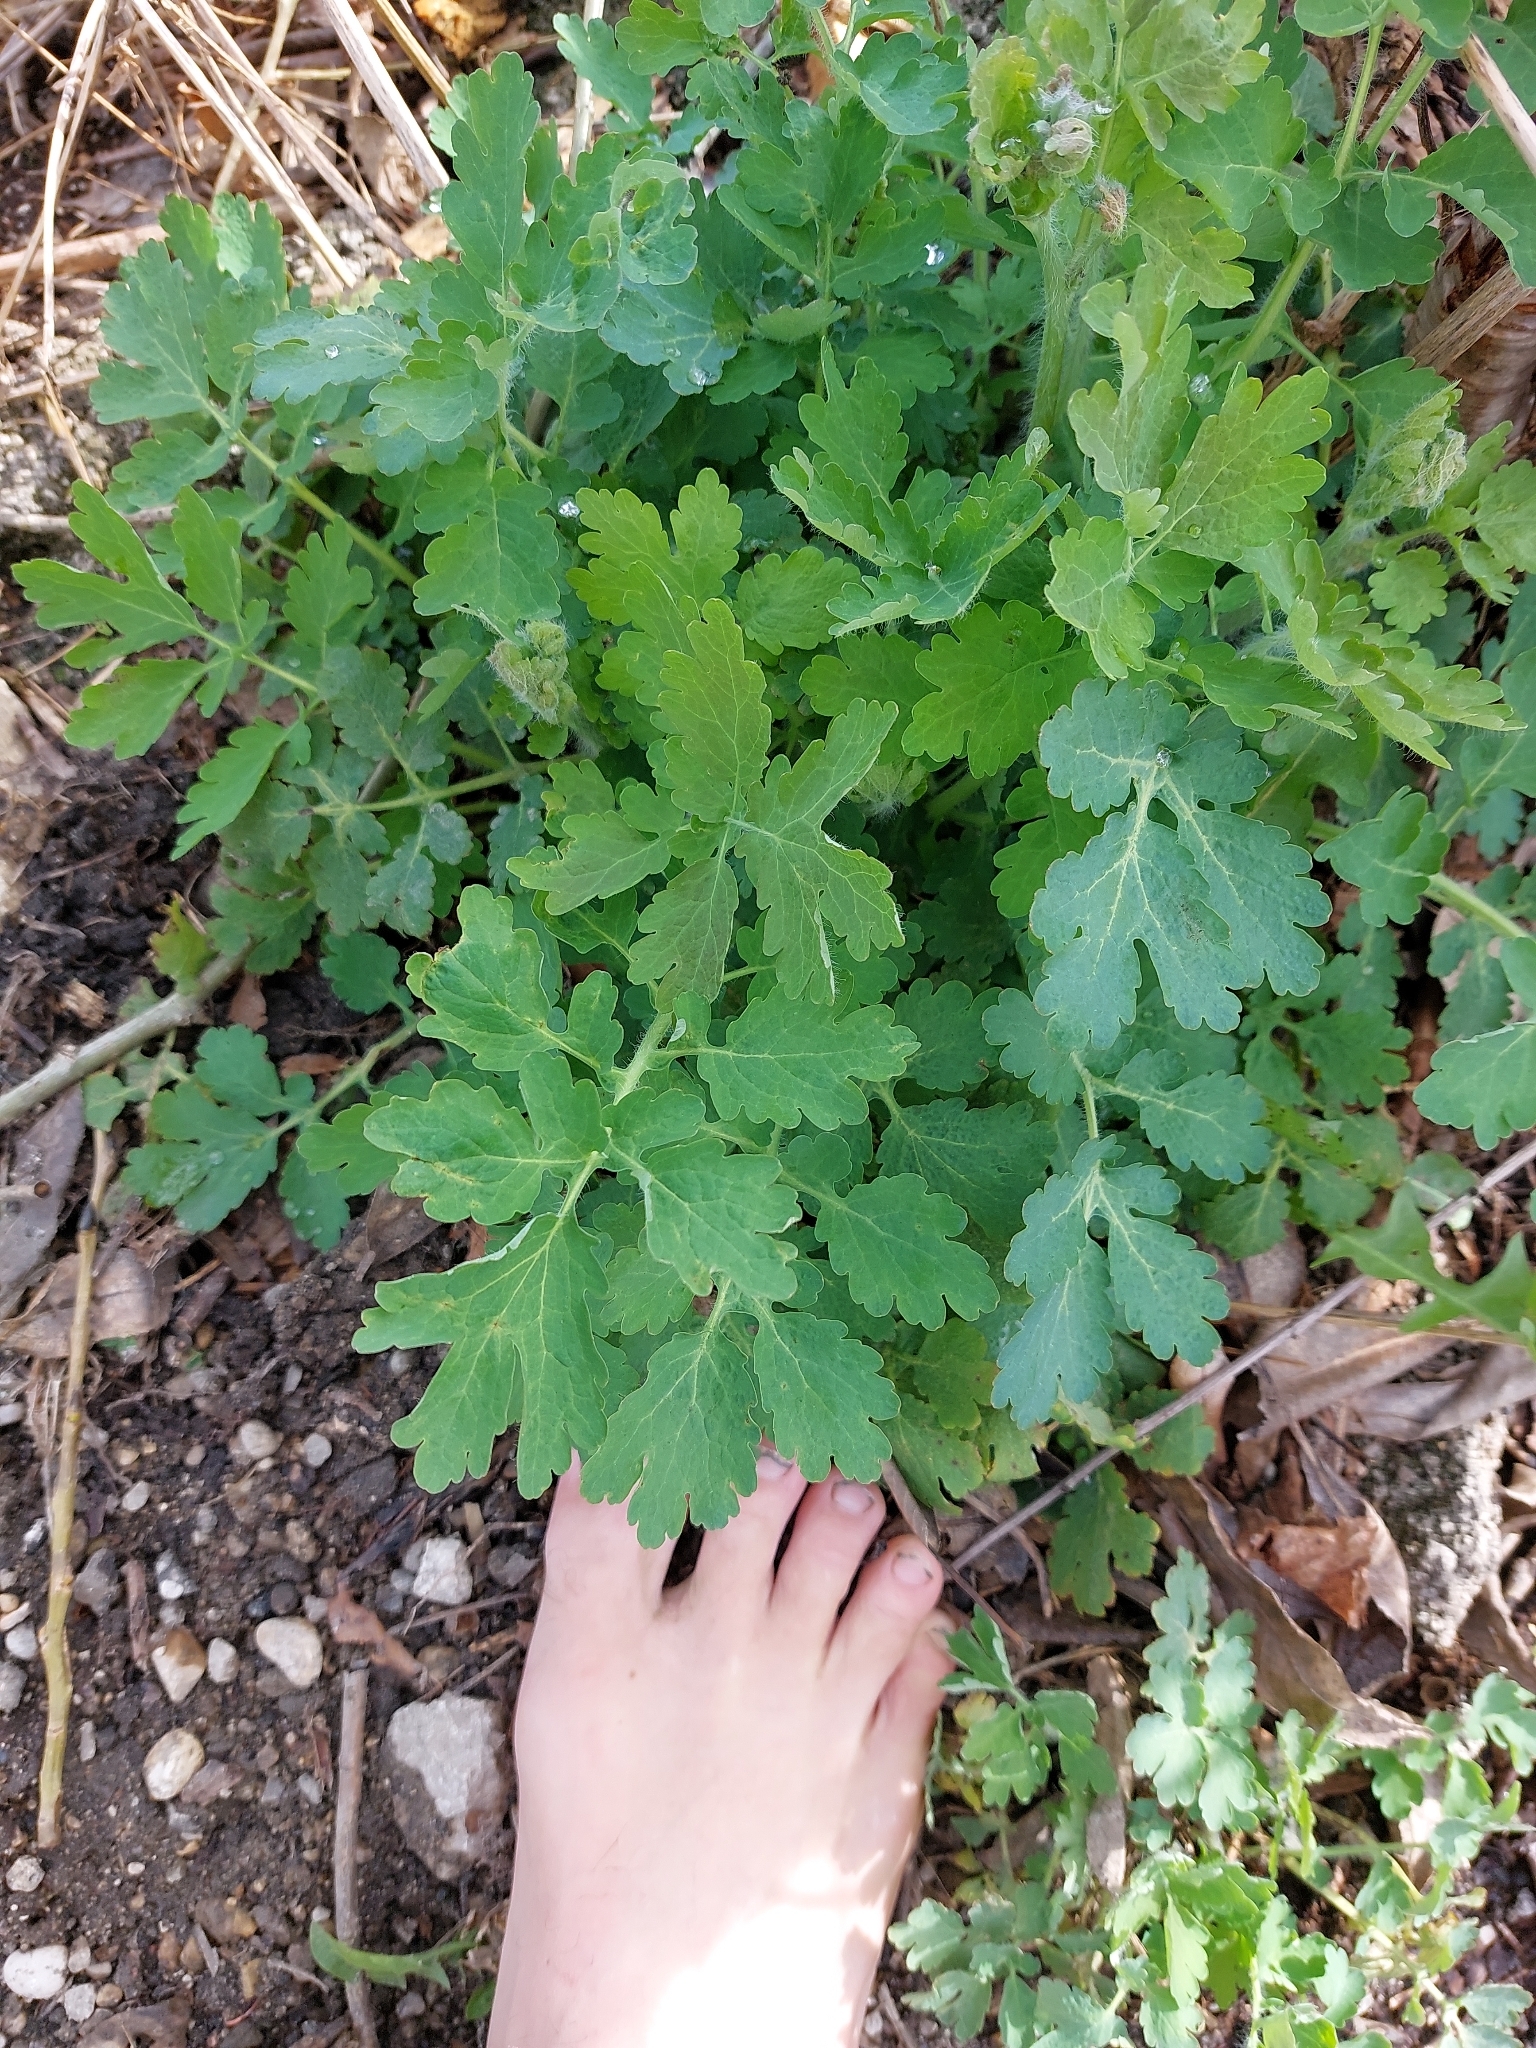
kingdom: Plantae
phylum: Tracheophyta
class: Magnoliopsida
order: Ranunculales
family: Papaveraceae
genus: Chelidonium
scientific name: Chelidonium majus
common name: Greater celandine
